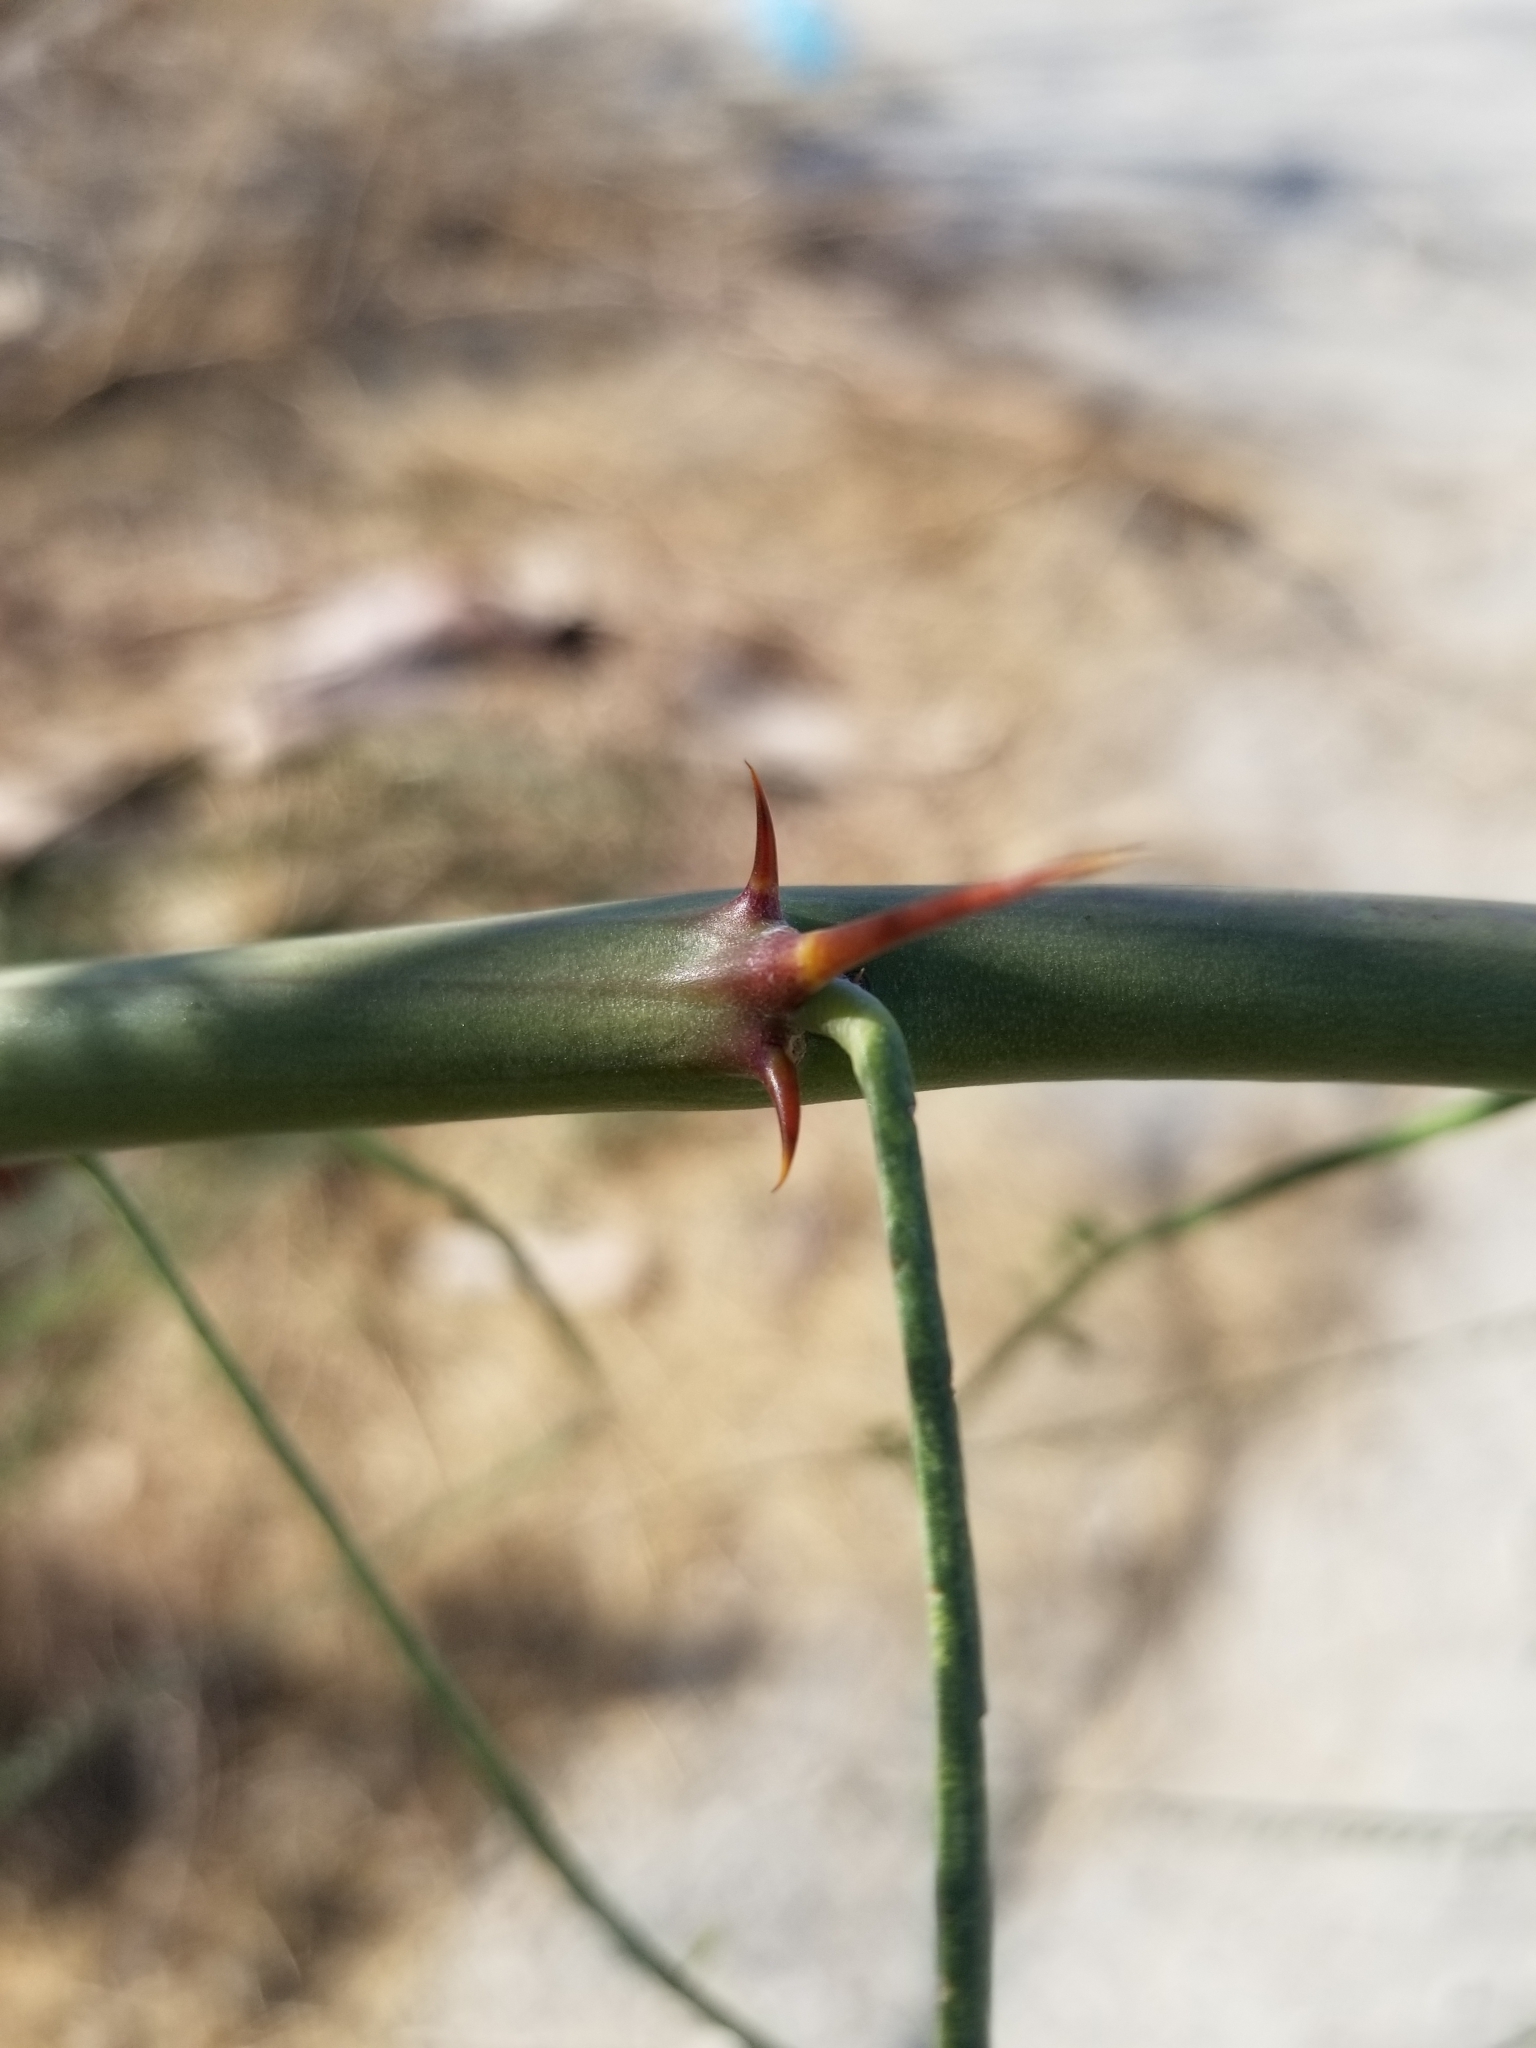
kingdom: Plantae
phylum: Tracheophyta
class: Magnoliopsida
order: Fabales
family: Fabaceae
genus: Parkinsonia
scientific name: Parkinsonia aculeata
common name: Jerusalem thorn
